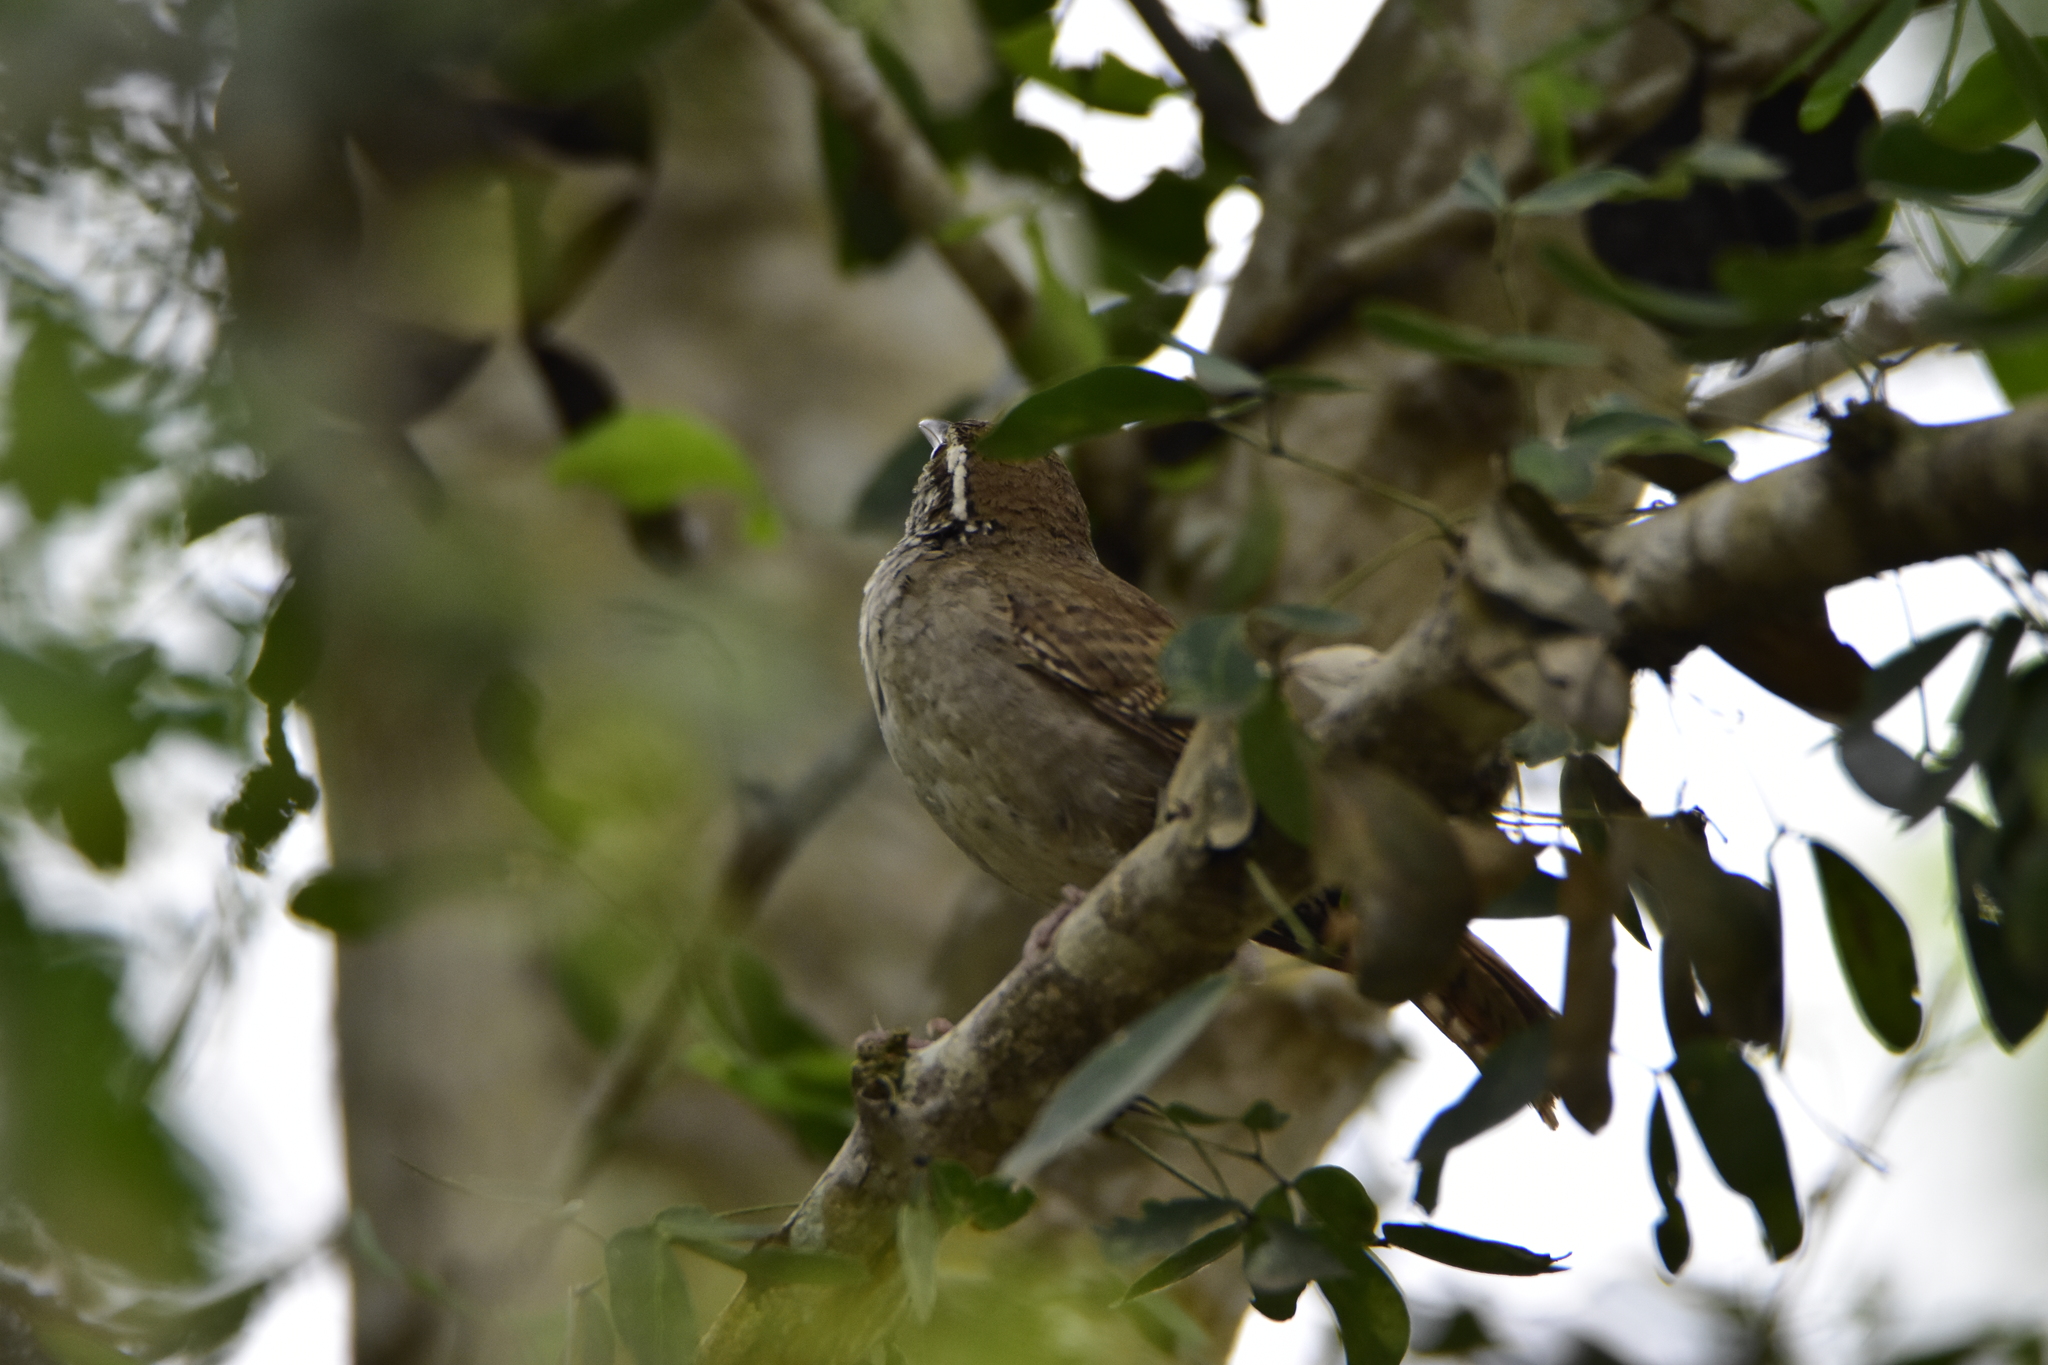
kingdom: Animalia
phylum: Chordata
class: Aves
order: Passeriformes
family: Troglodytidae
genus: Campylorhynchus
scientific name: Campylorhynchus gularis
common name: Spotted wren
